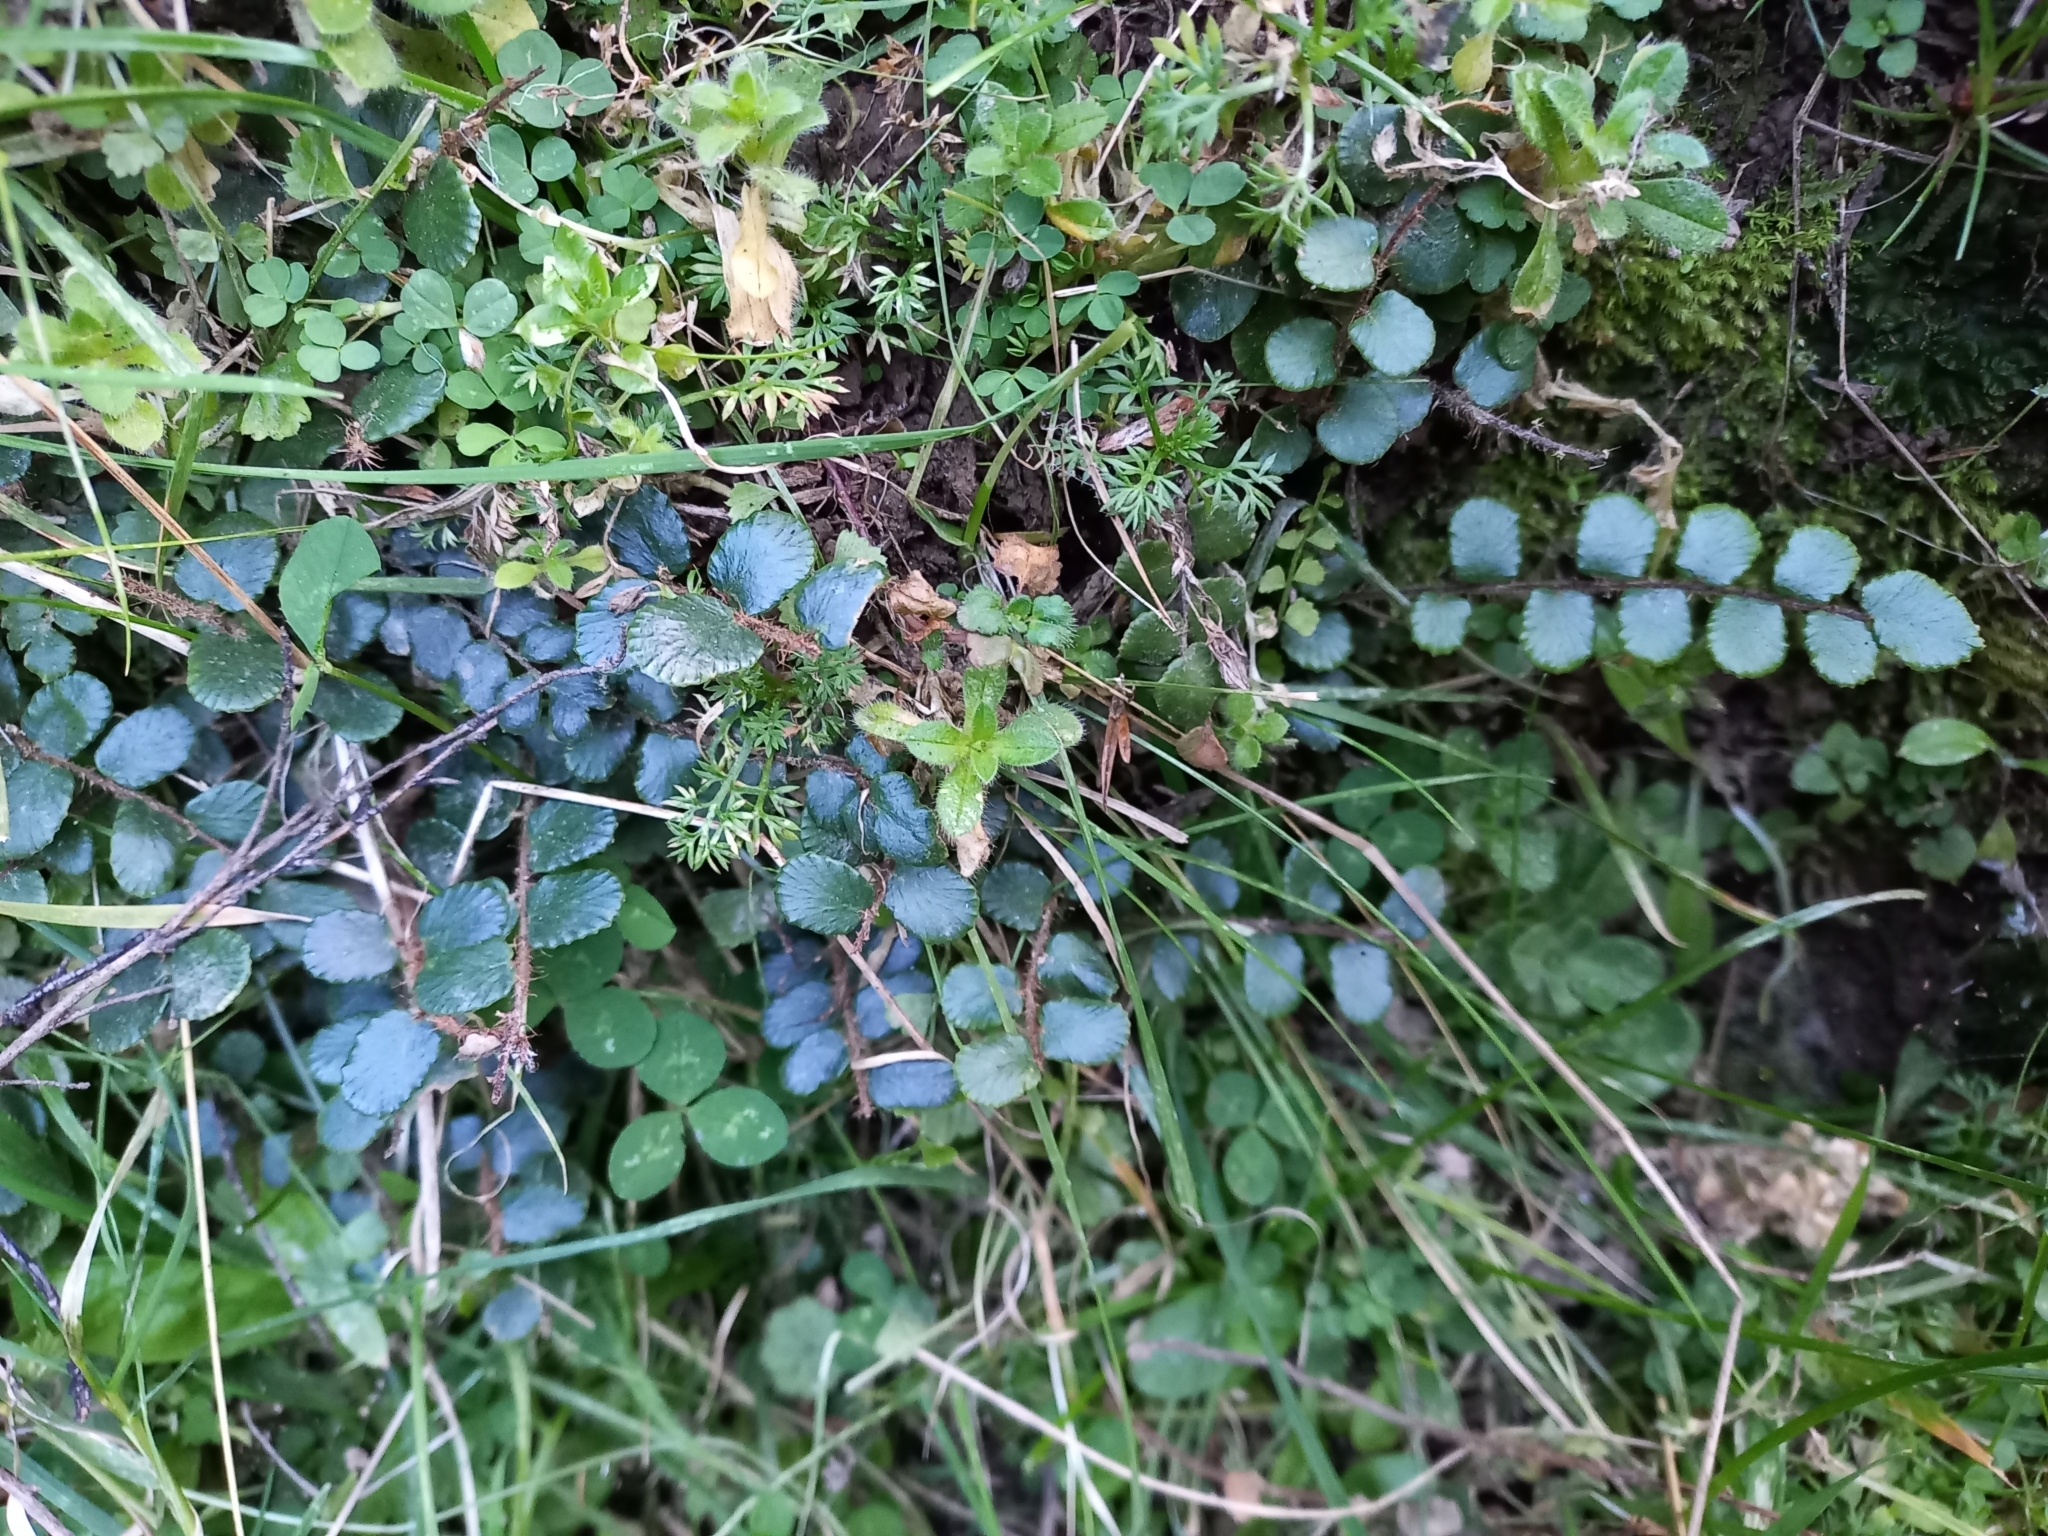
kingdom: Plantae
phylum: Tracheophyta
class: Polypodiopsida
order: Polypodiales
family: Pteridaceae
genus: Pellaea
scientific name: Pellaea rotundifolia
